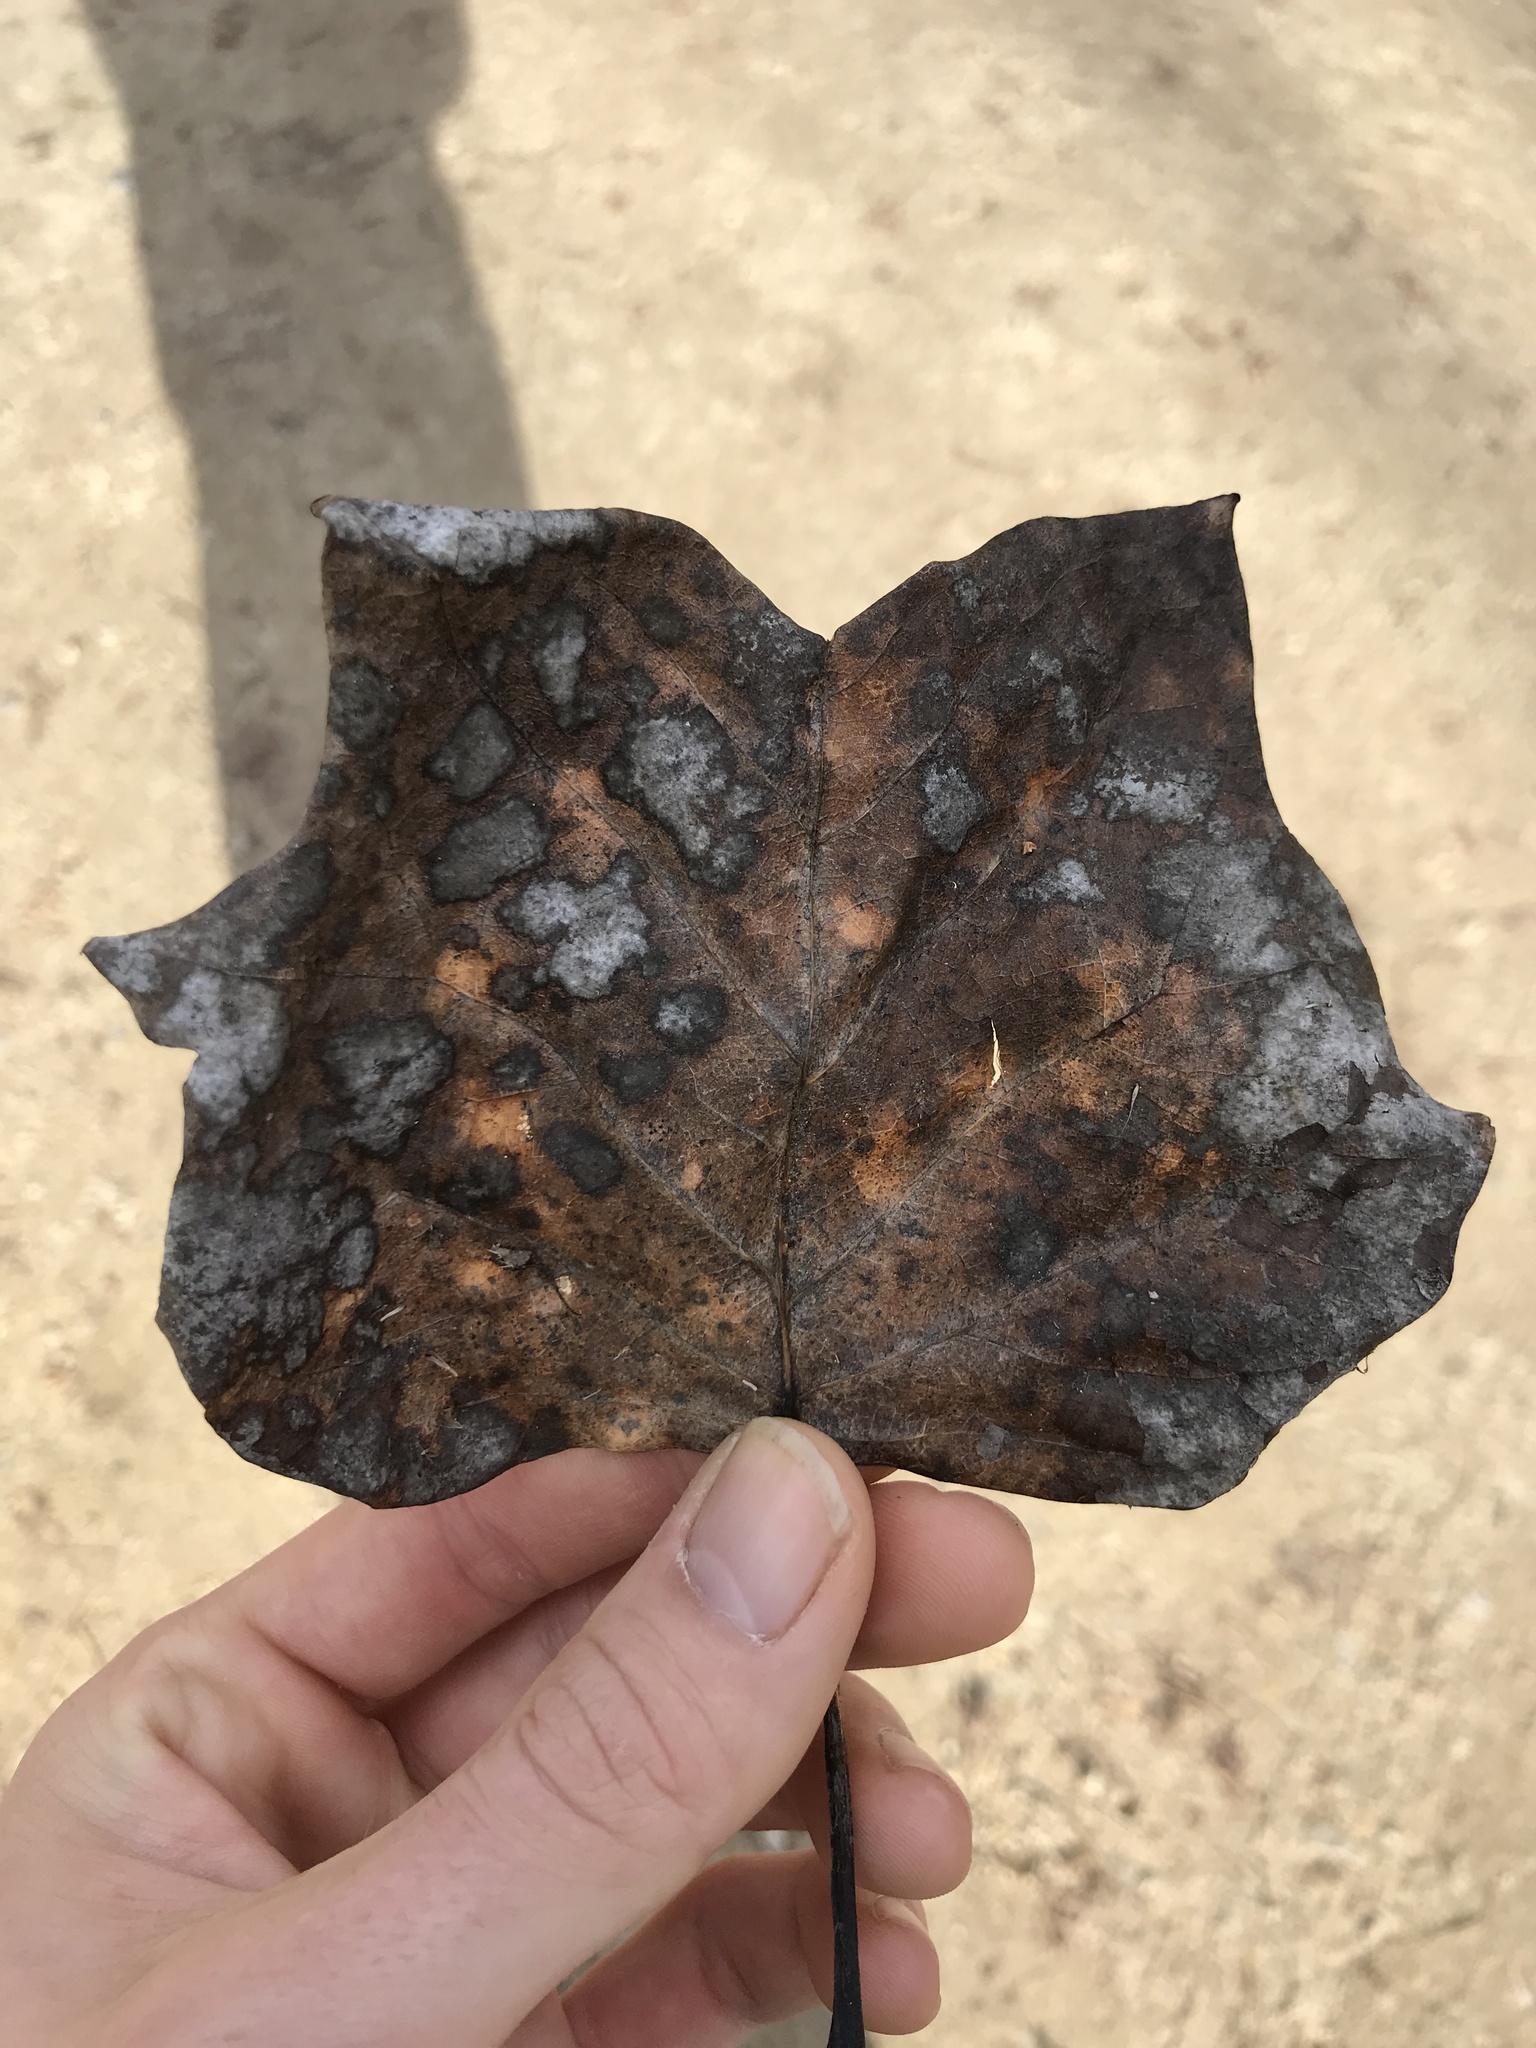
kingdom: Fungi
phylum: Ascomycota
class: Leotiomycetes
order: Helotiales
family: Erysiphaceae
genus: Erysiphe
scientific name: Erysiphe liriodendri
